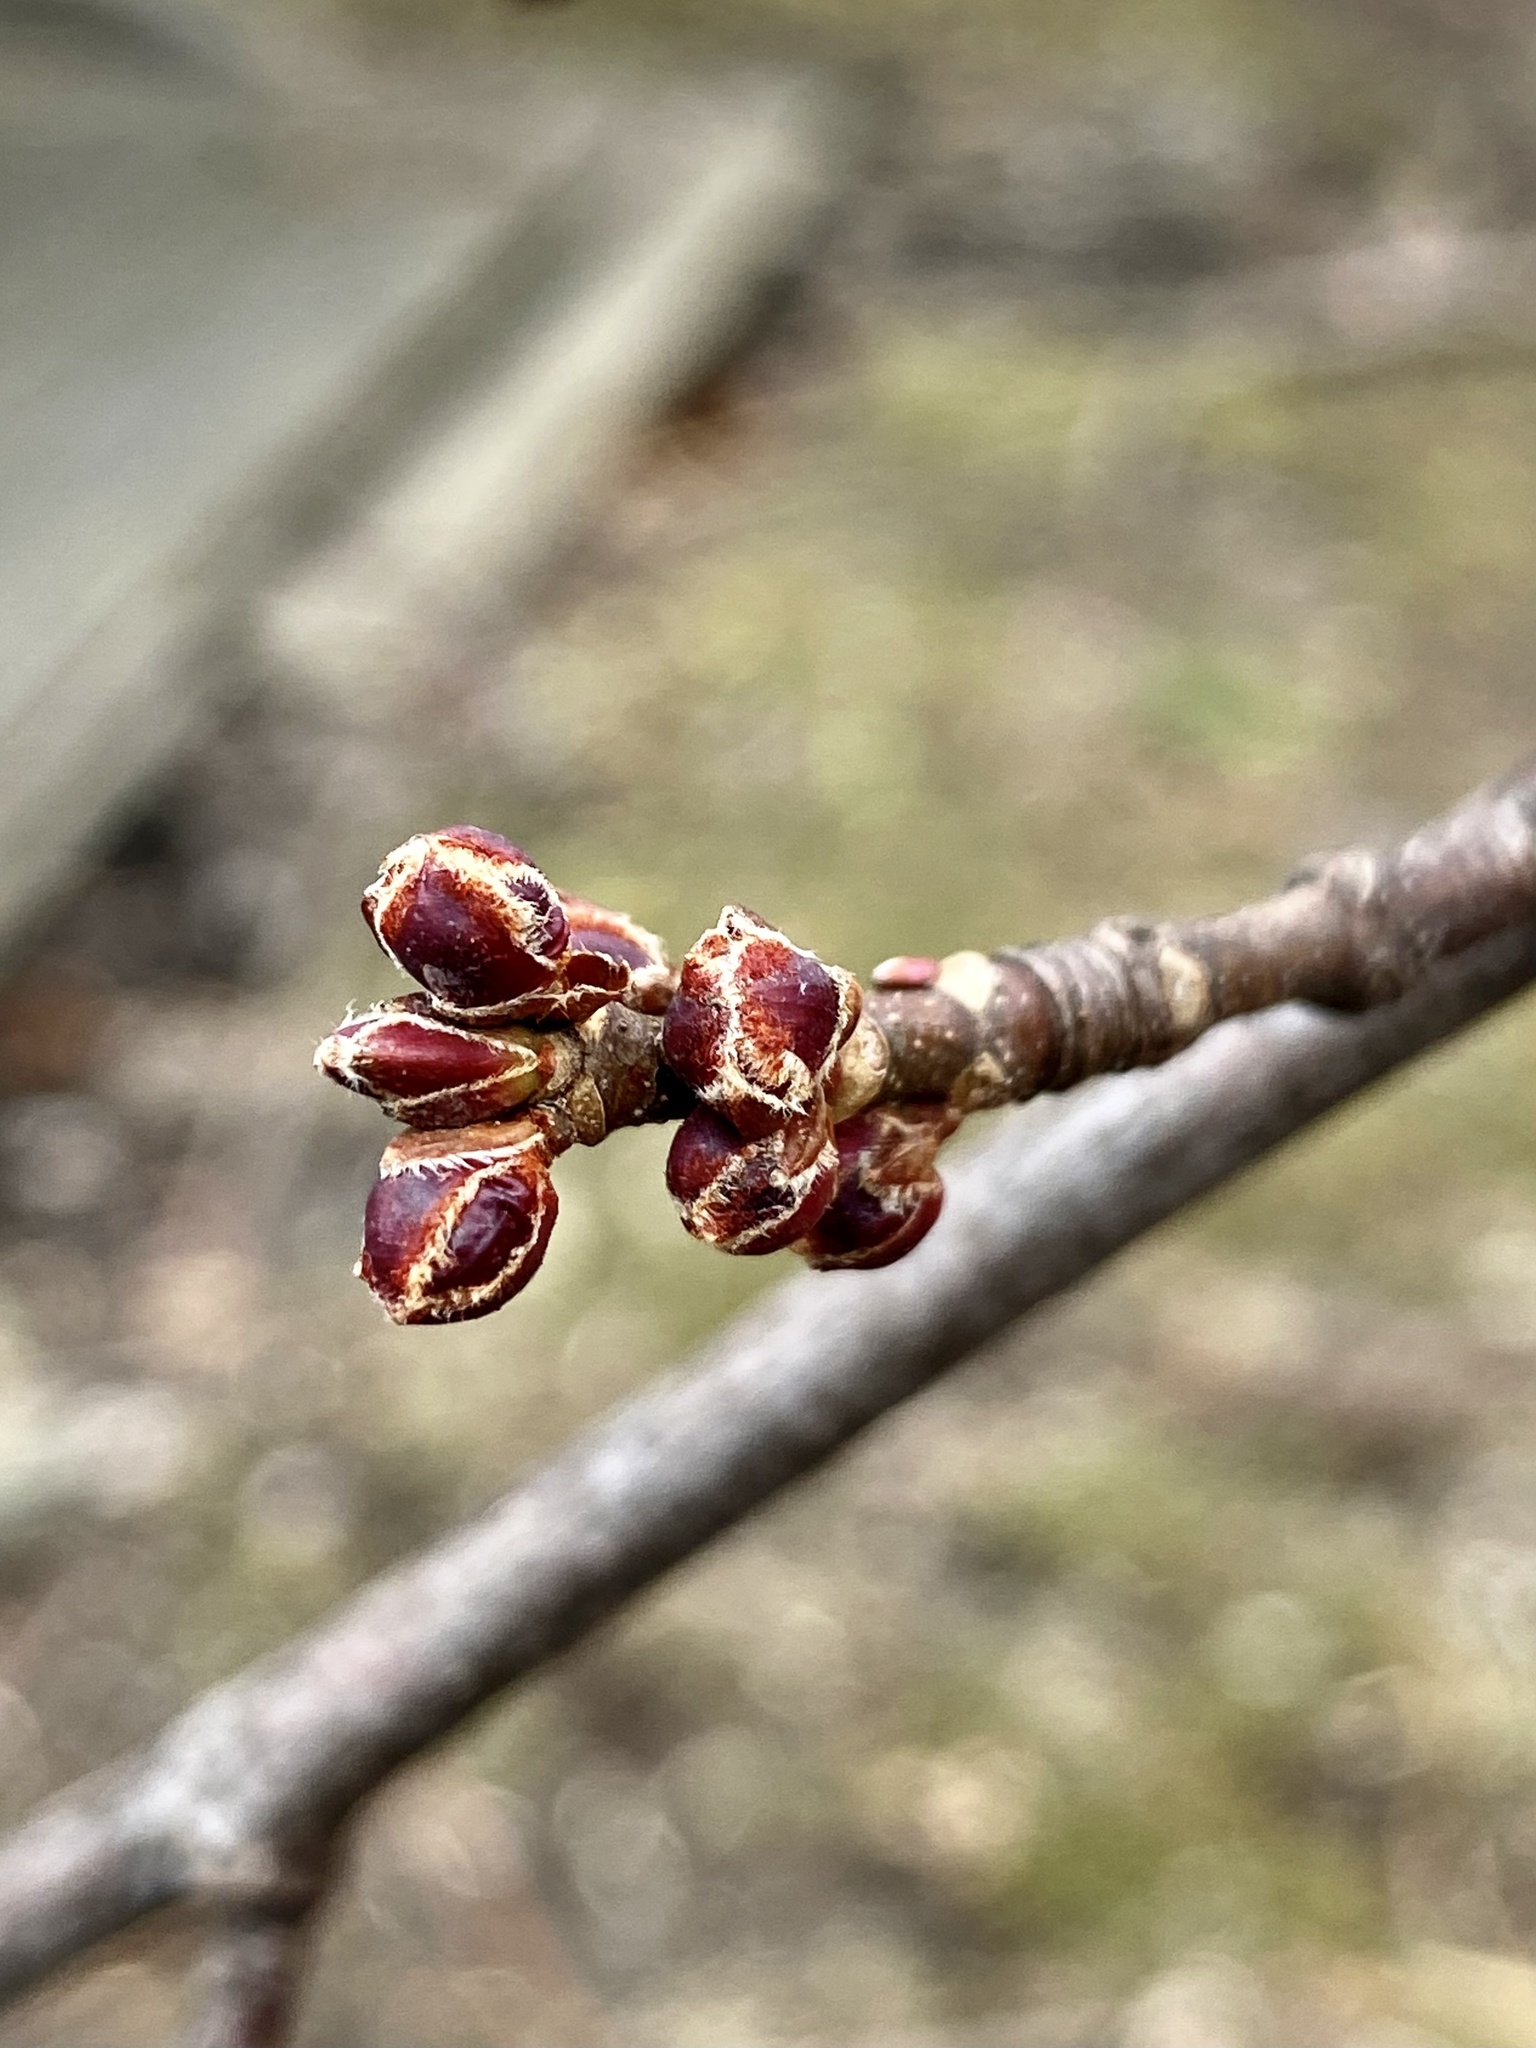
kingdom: Plantae
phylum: Tracheophyta
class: Magnoliopsida
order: Sapindales
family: Sapindaceae
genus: Acer
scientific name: Acer saccharinum
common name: Silver maple
